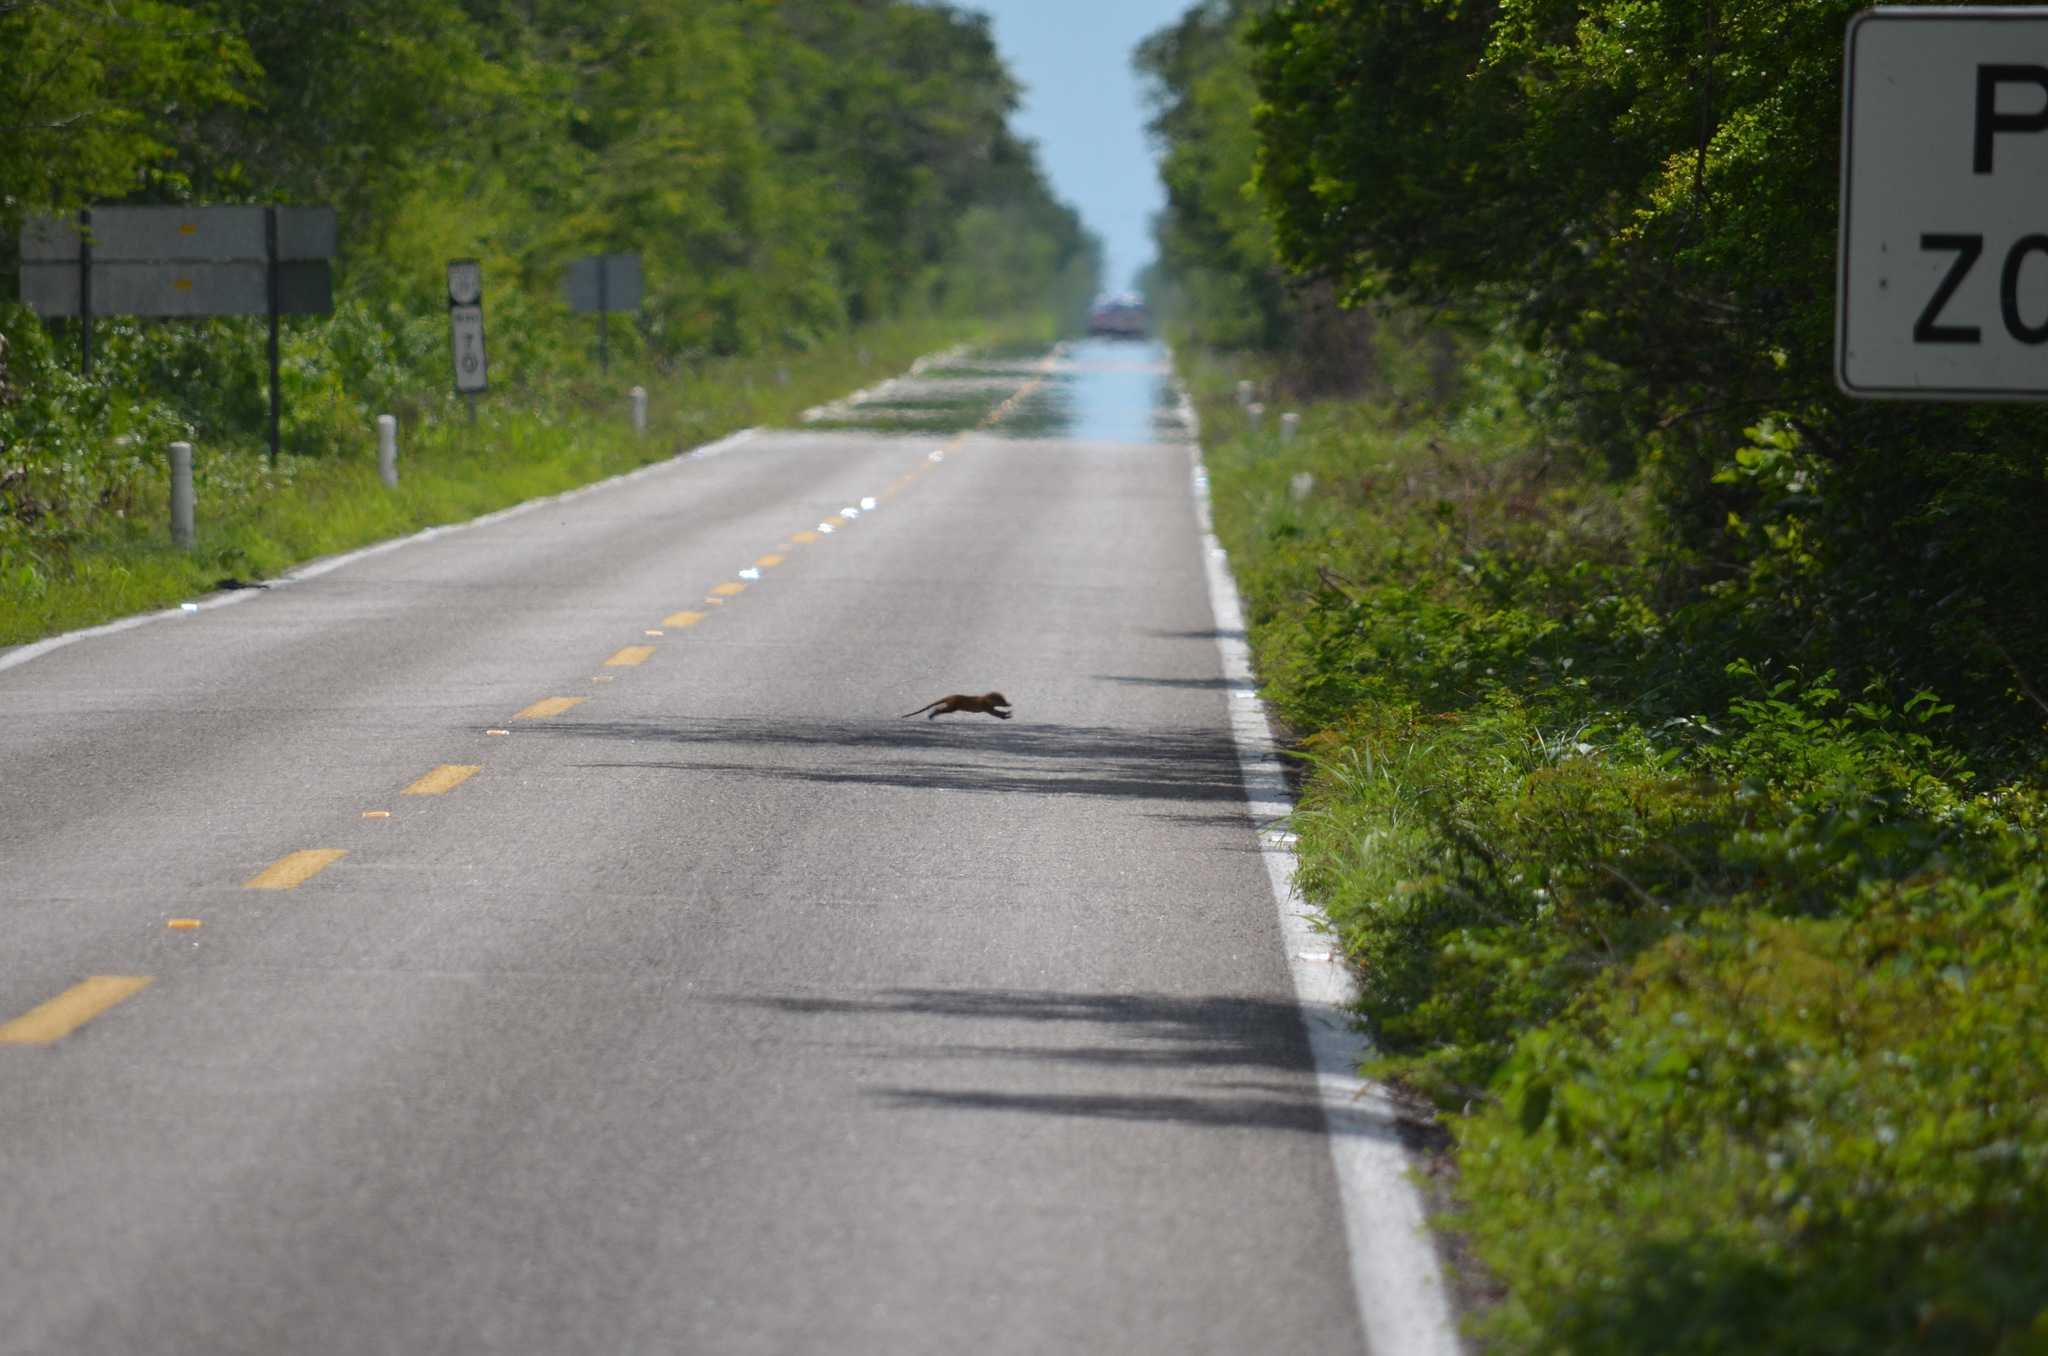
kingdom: Animalia
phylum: Chordata
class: Mammalia
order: Carnivora
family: Procyonidae
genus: Nasua
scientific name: Nasua narica
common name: White-nosed coati
